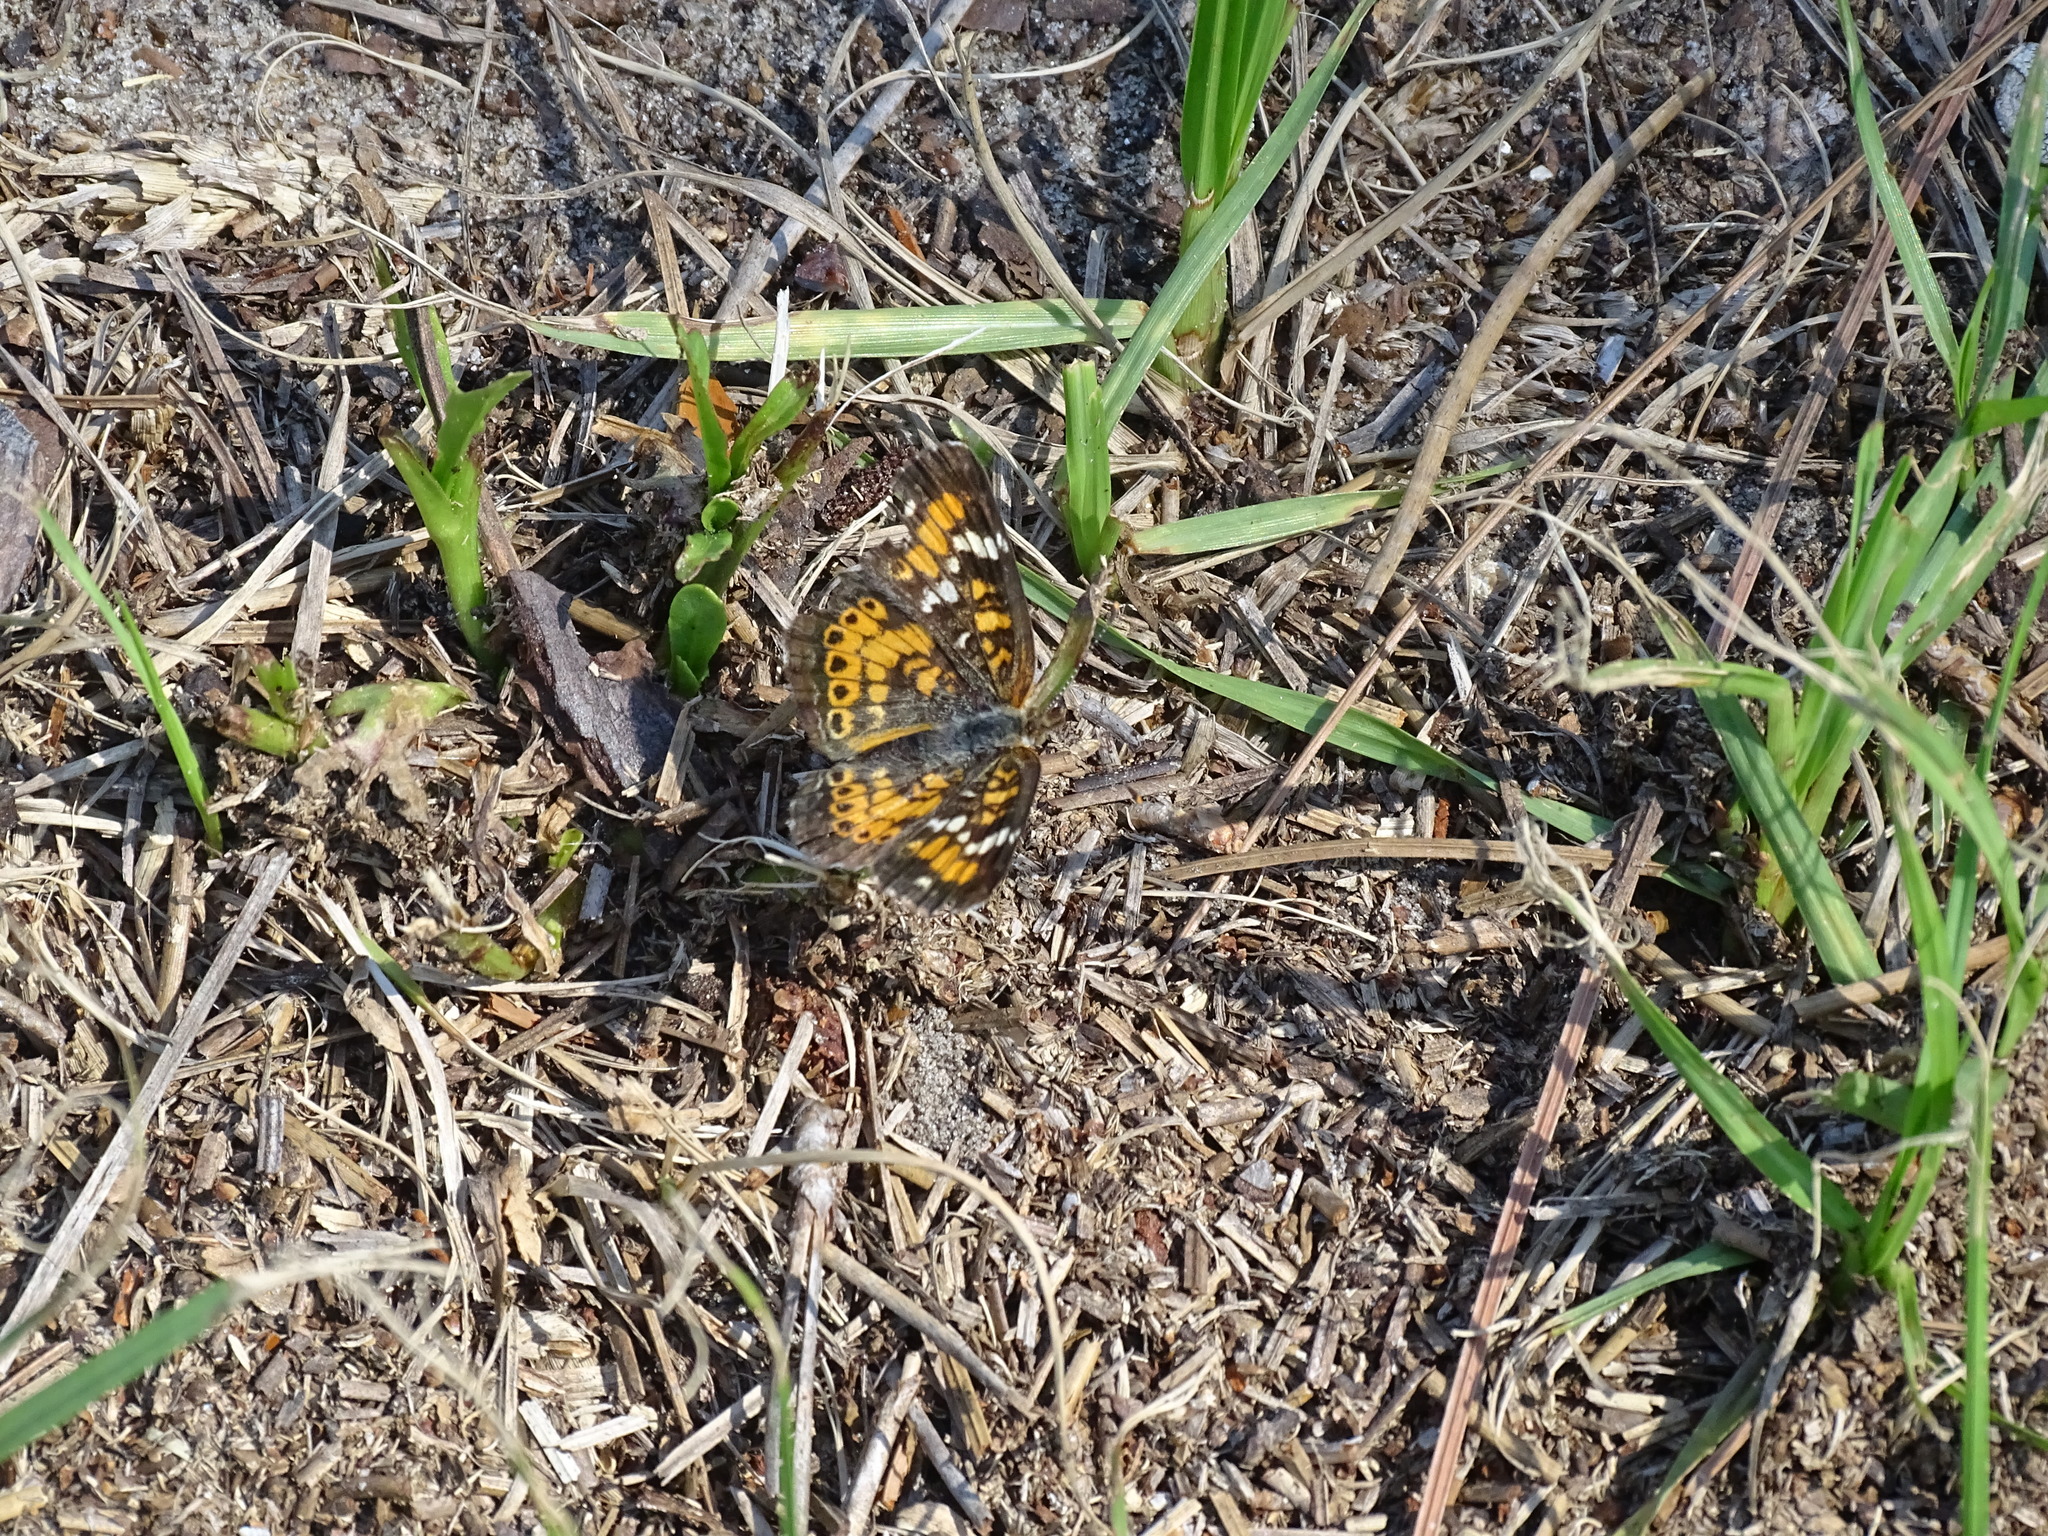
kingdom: Animalia
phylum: Arthropoda
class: Insecta
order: Lepidoptera
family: Nymphalidae
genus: Phyciodes
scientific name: Phyciodes phaon
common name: Phaon crescent
